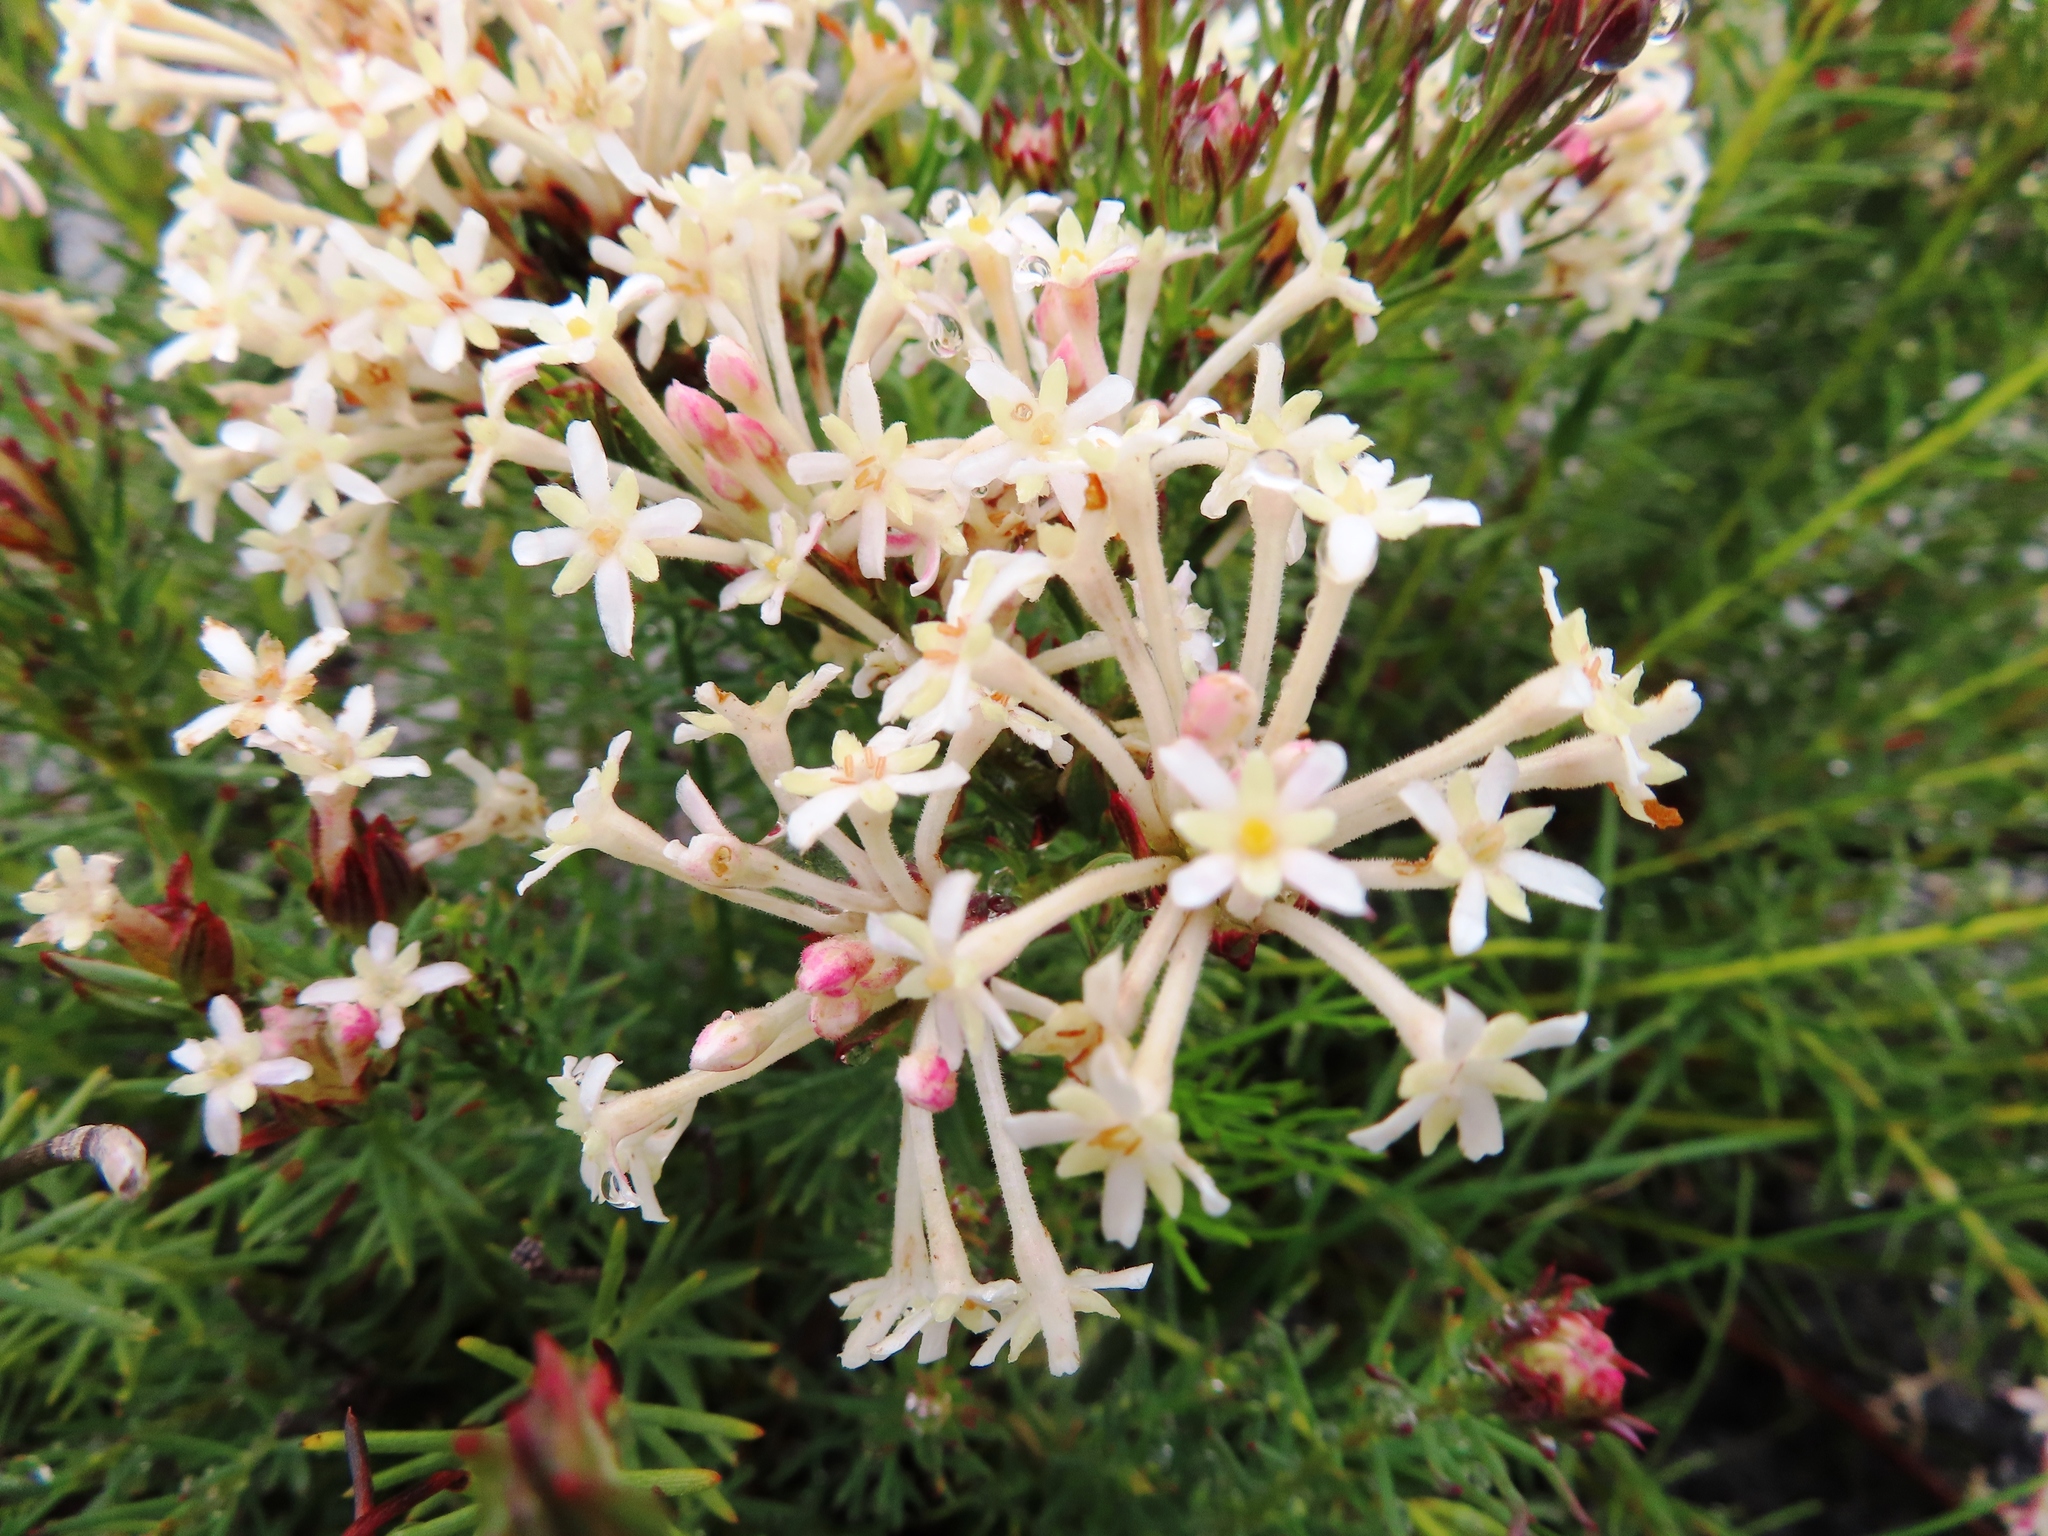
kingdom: Plantae
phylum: Tracheophyta
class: Magnoliopsida
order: Malvales
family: Thymelaeaceae
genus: Gnidia
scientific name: Gnidia pinifolia
